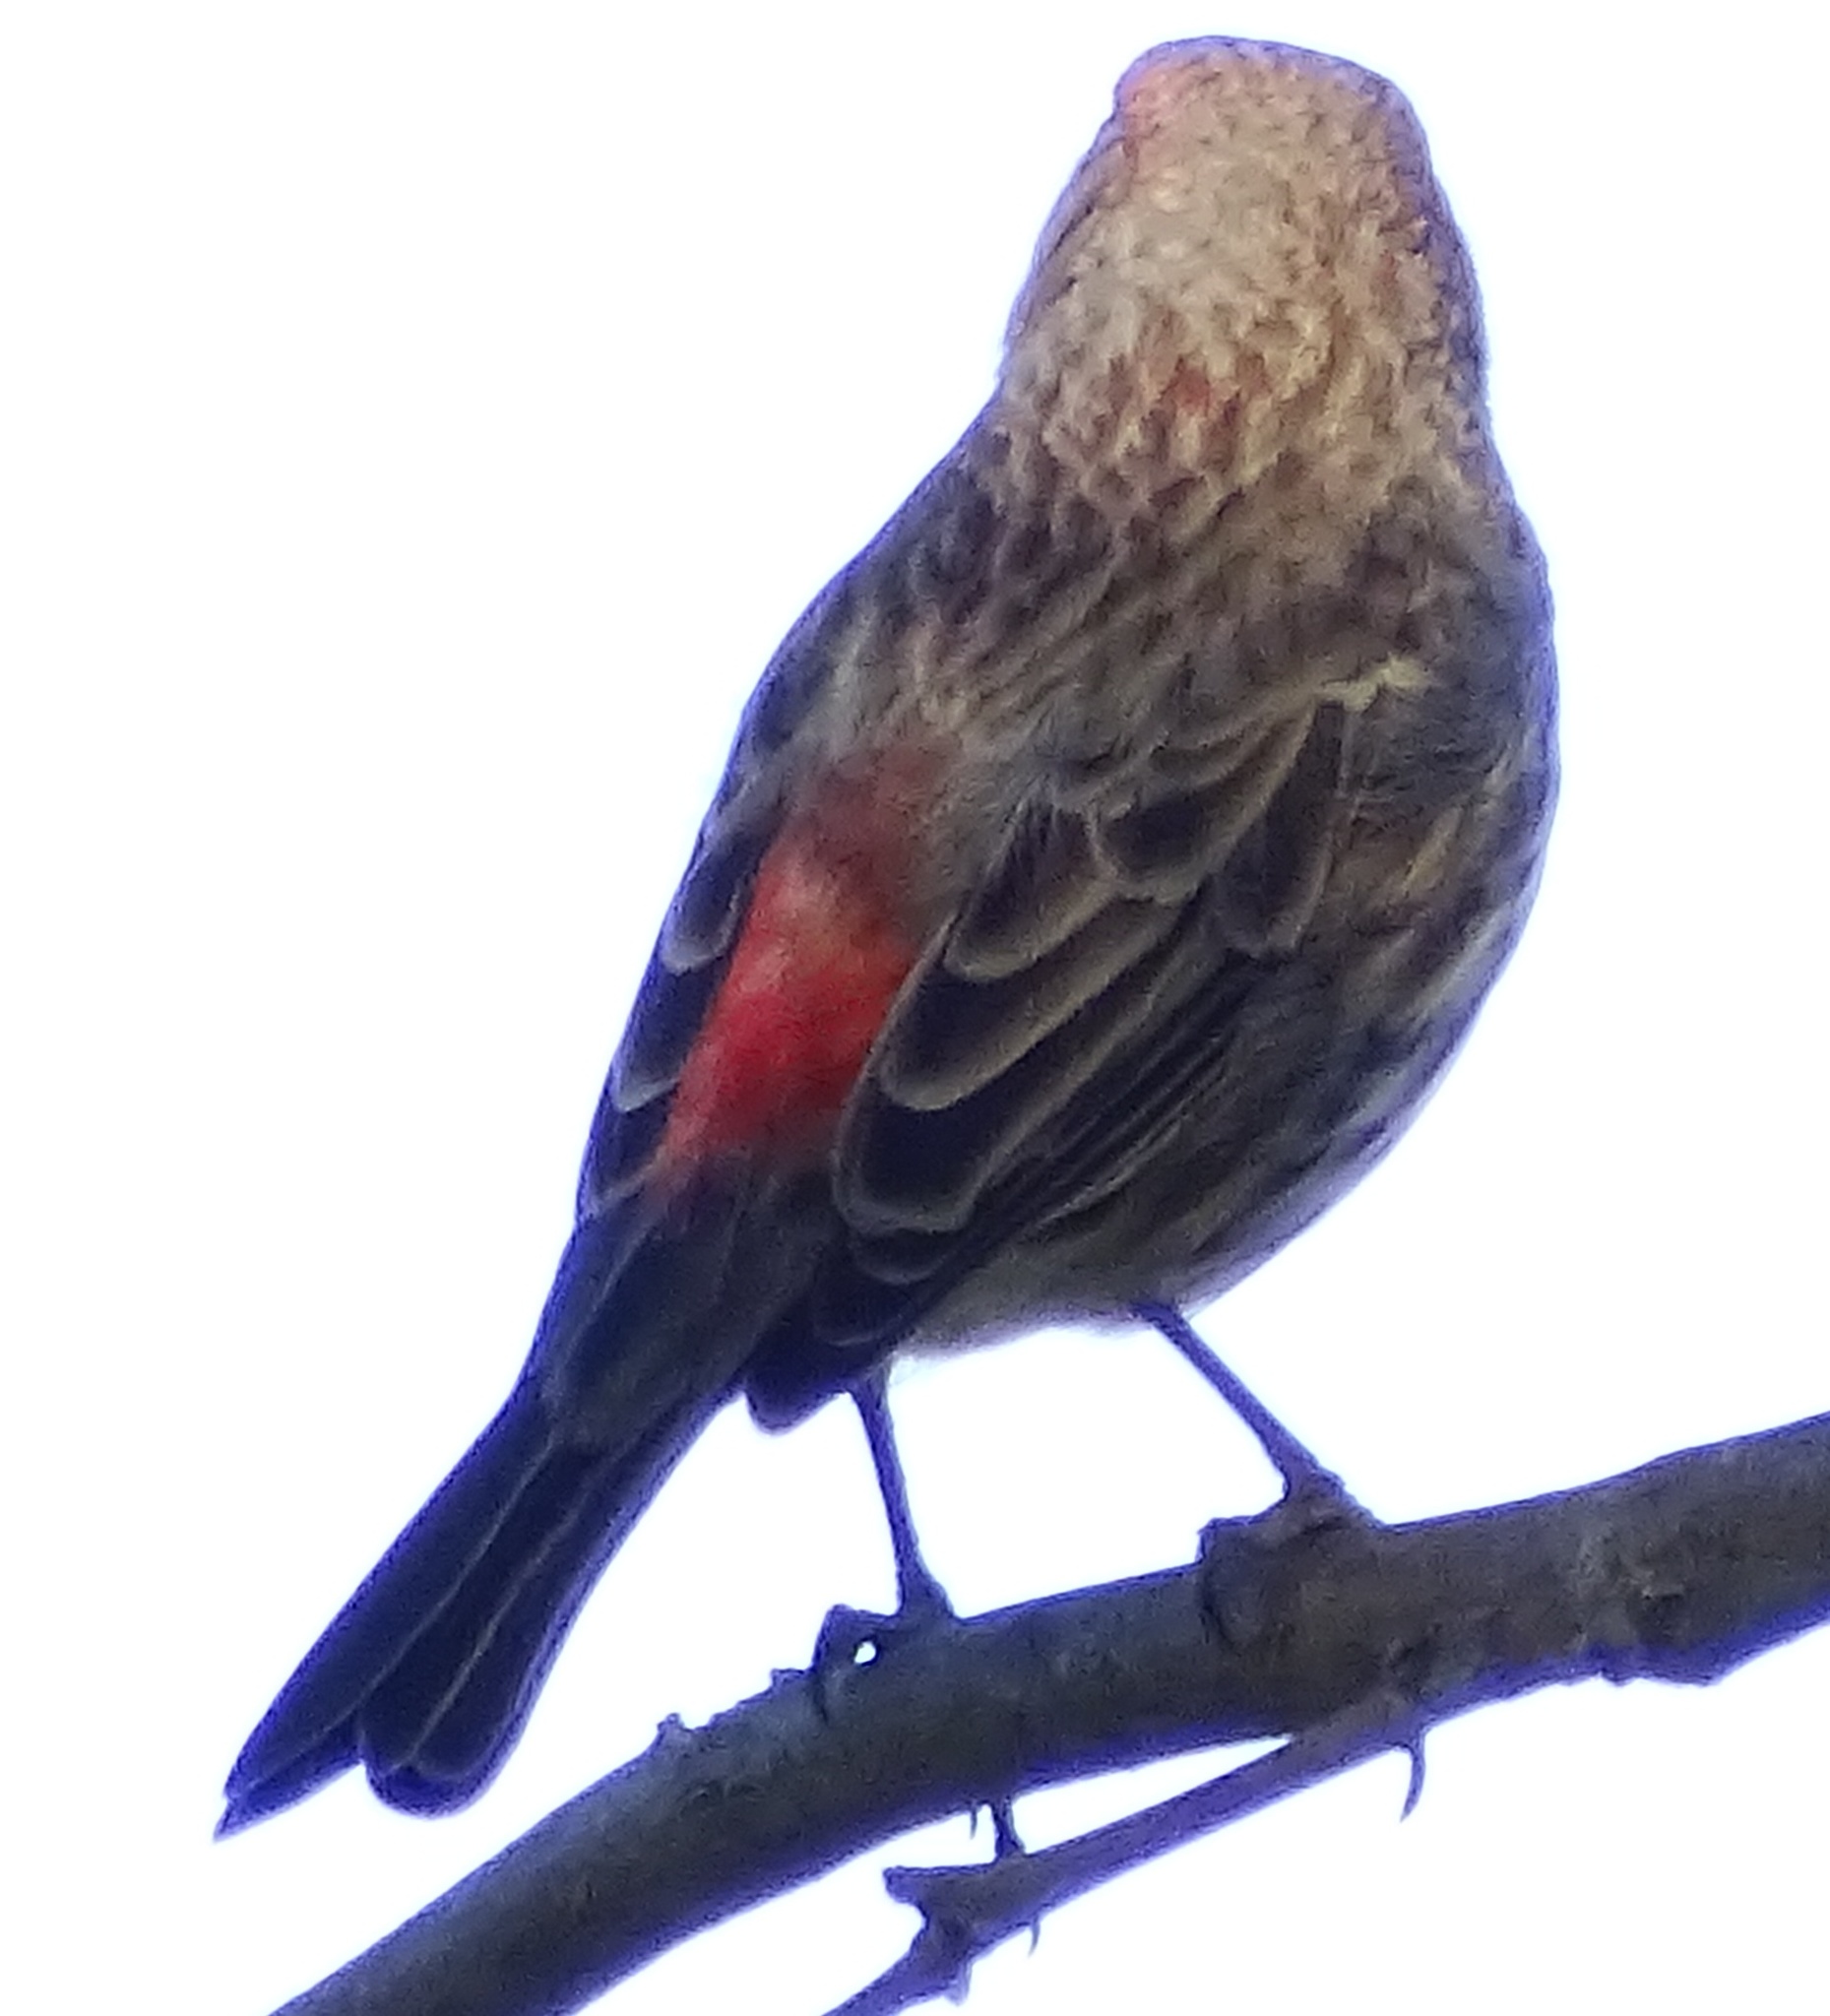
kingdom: Animalia
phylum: Chordata
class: Aves
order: Passeriformes
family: Fringillidae
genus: Haemorhous
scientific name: Haemorhous mexicanus
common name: House finch
